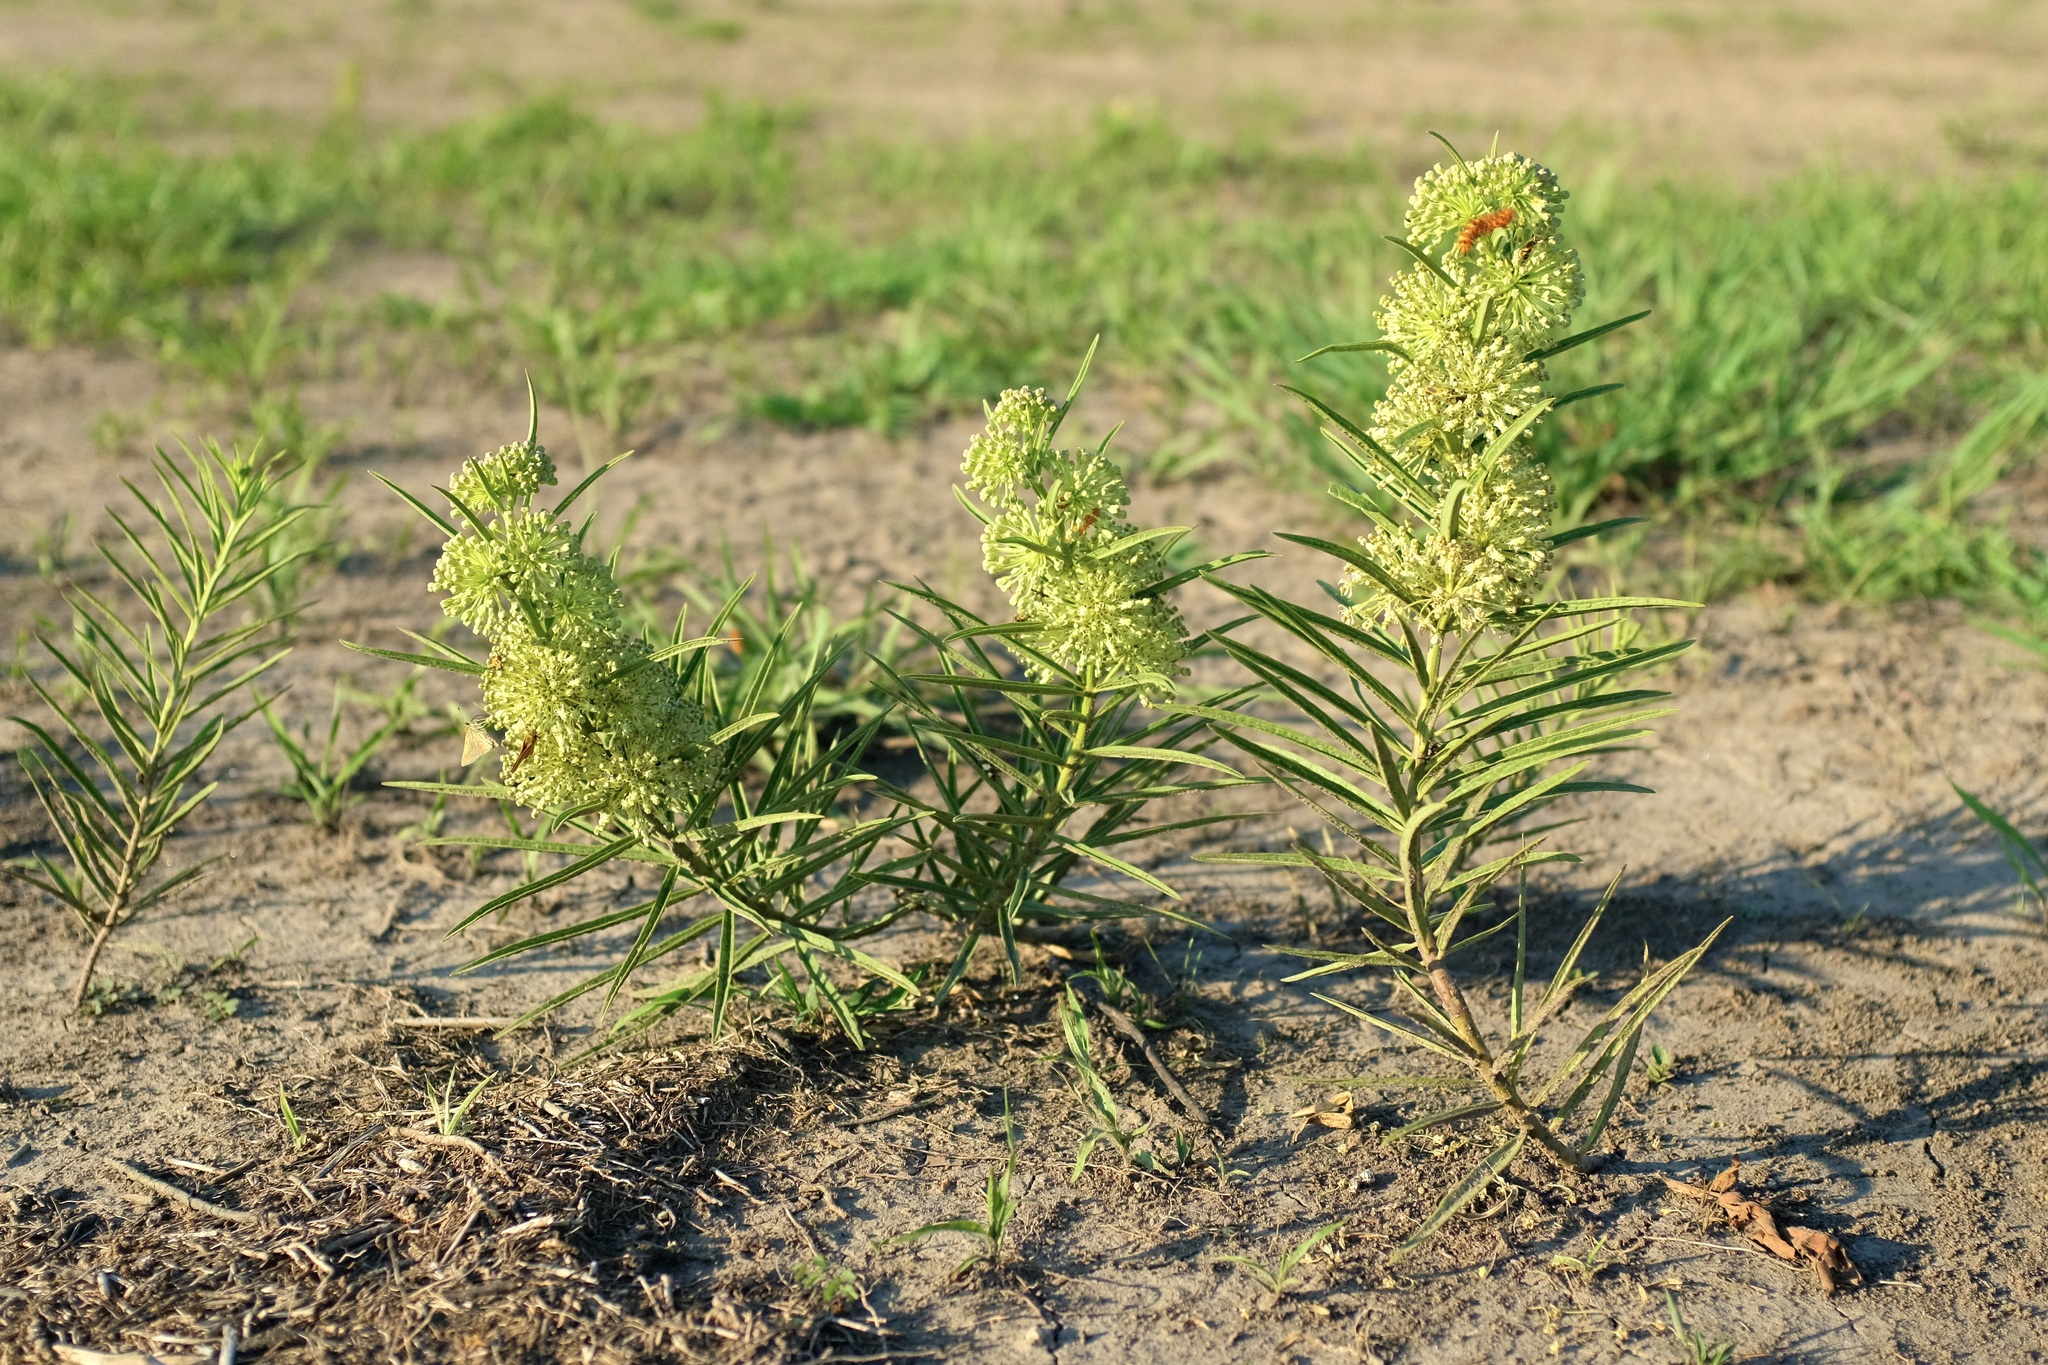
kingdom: Plantae
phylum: Tracheophyta
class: Magnoliopsida
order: Gentianales
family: Apocynaceae
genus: Asclepias
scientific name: Asclepias hirtella
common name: Prairie milkweed
